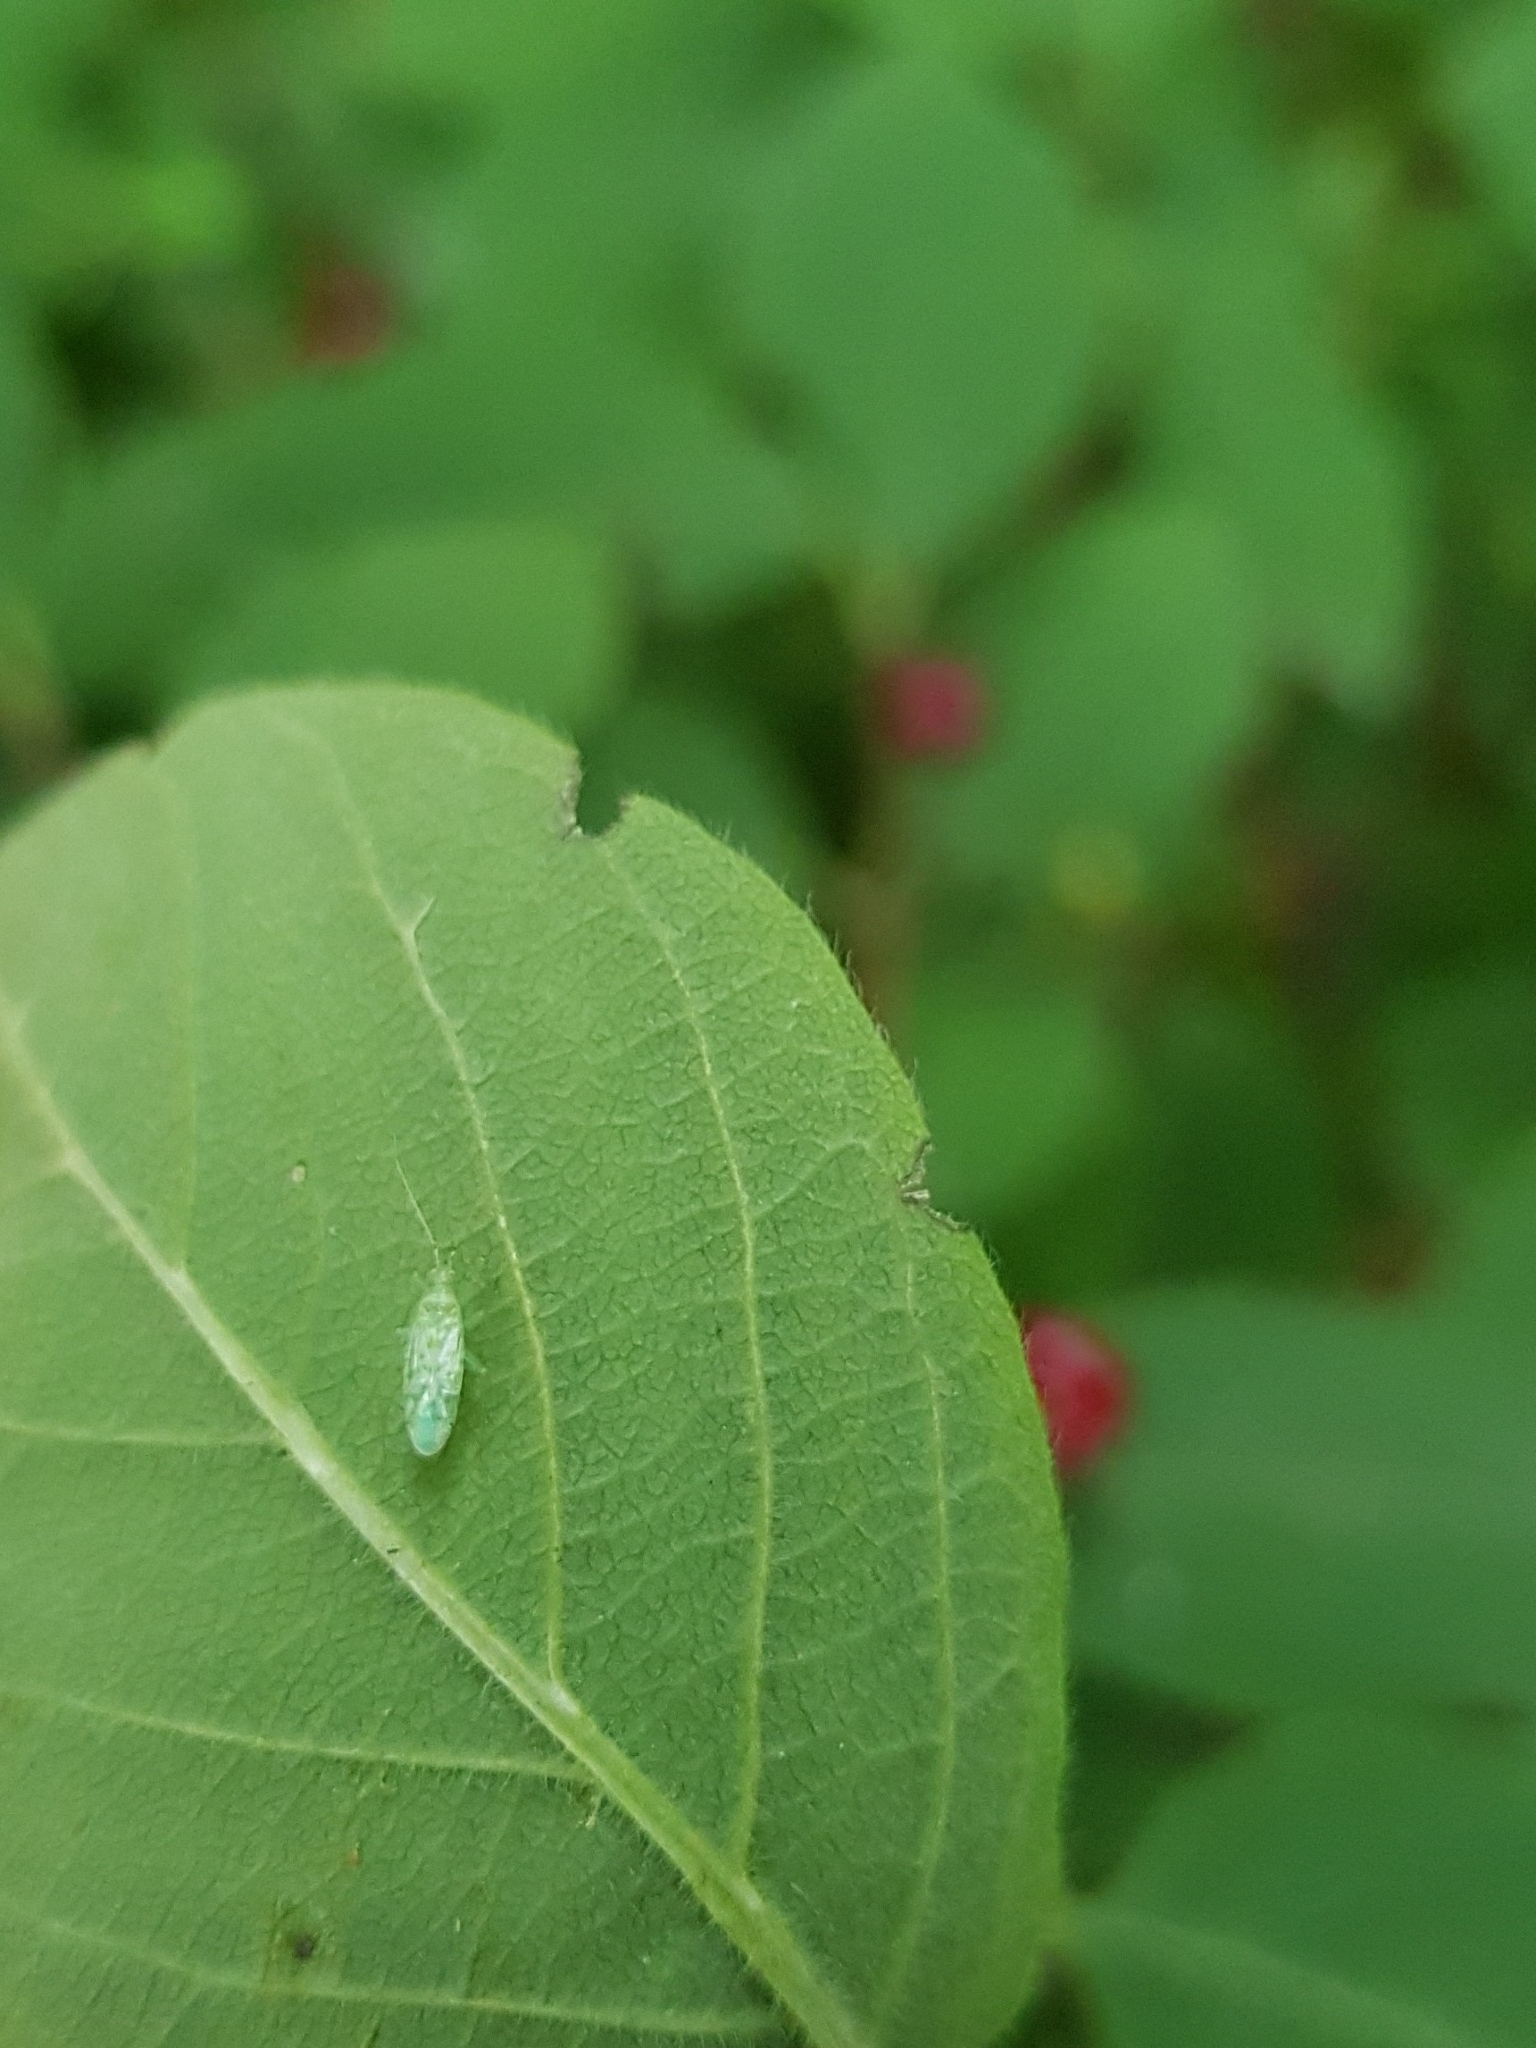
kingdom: Animalia
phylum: Arthropoda
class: Insecta
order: Hemiptera
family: Miridae
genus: Malacocoris
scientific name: Malacocoris chlorizans
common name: Plant bug
